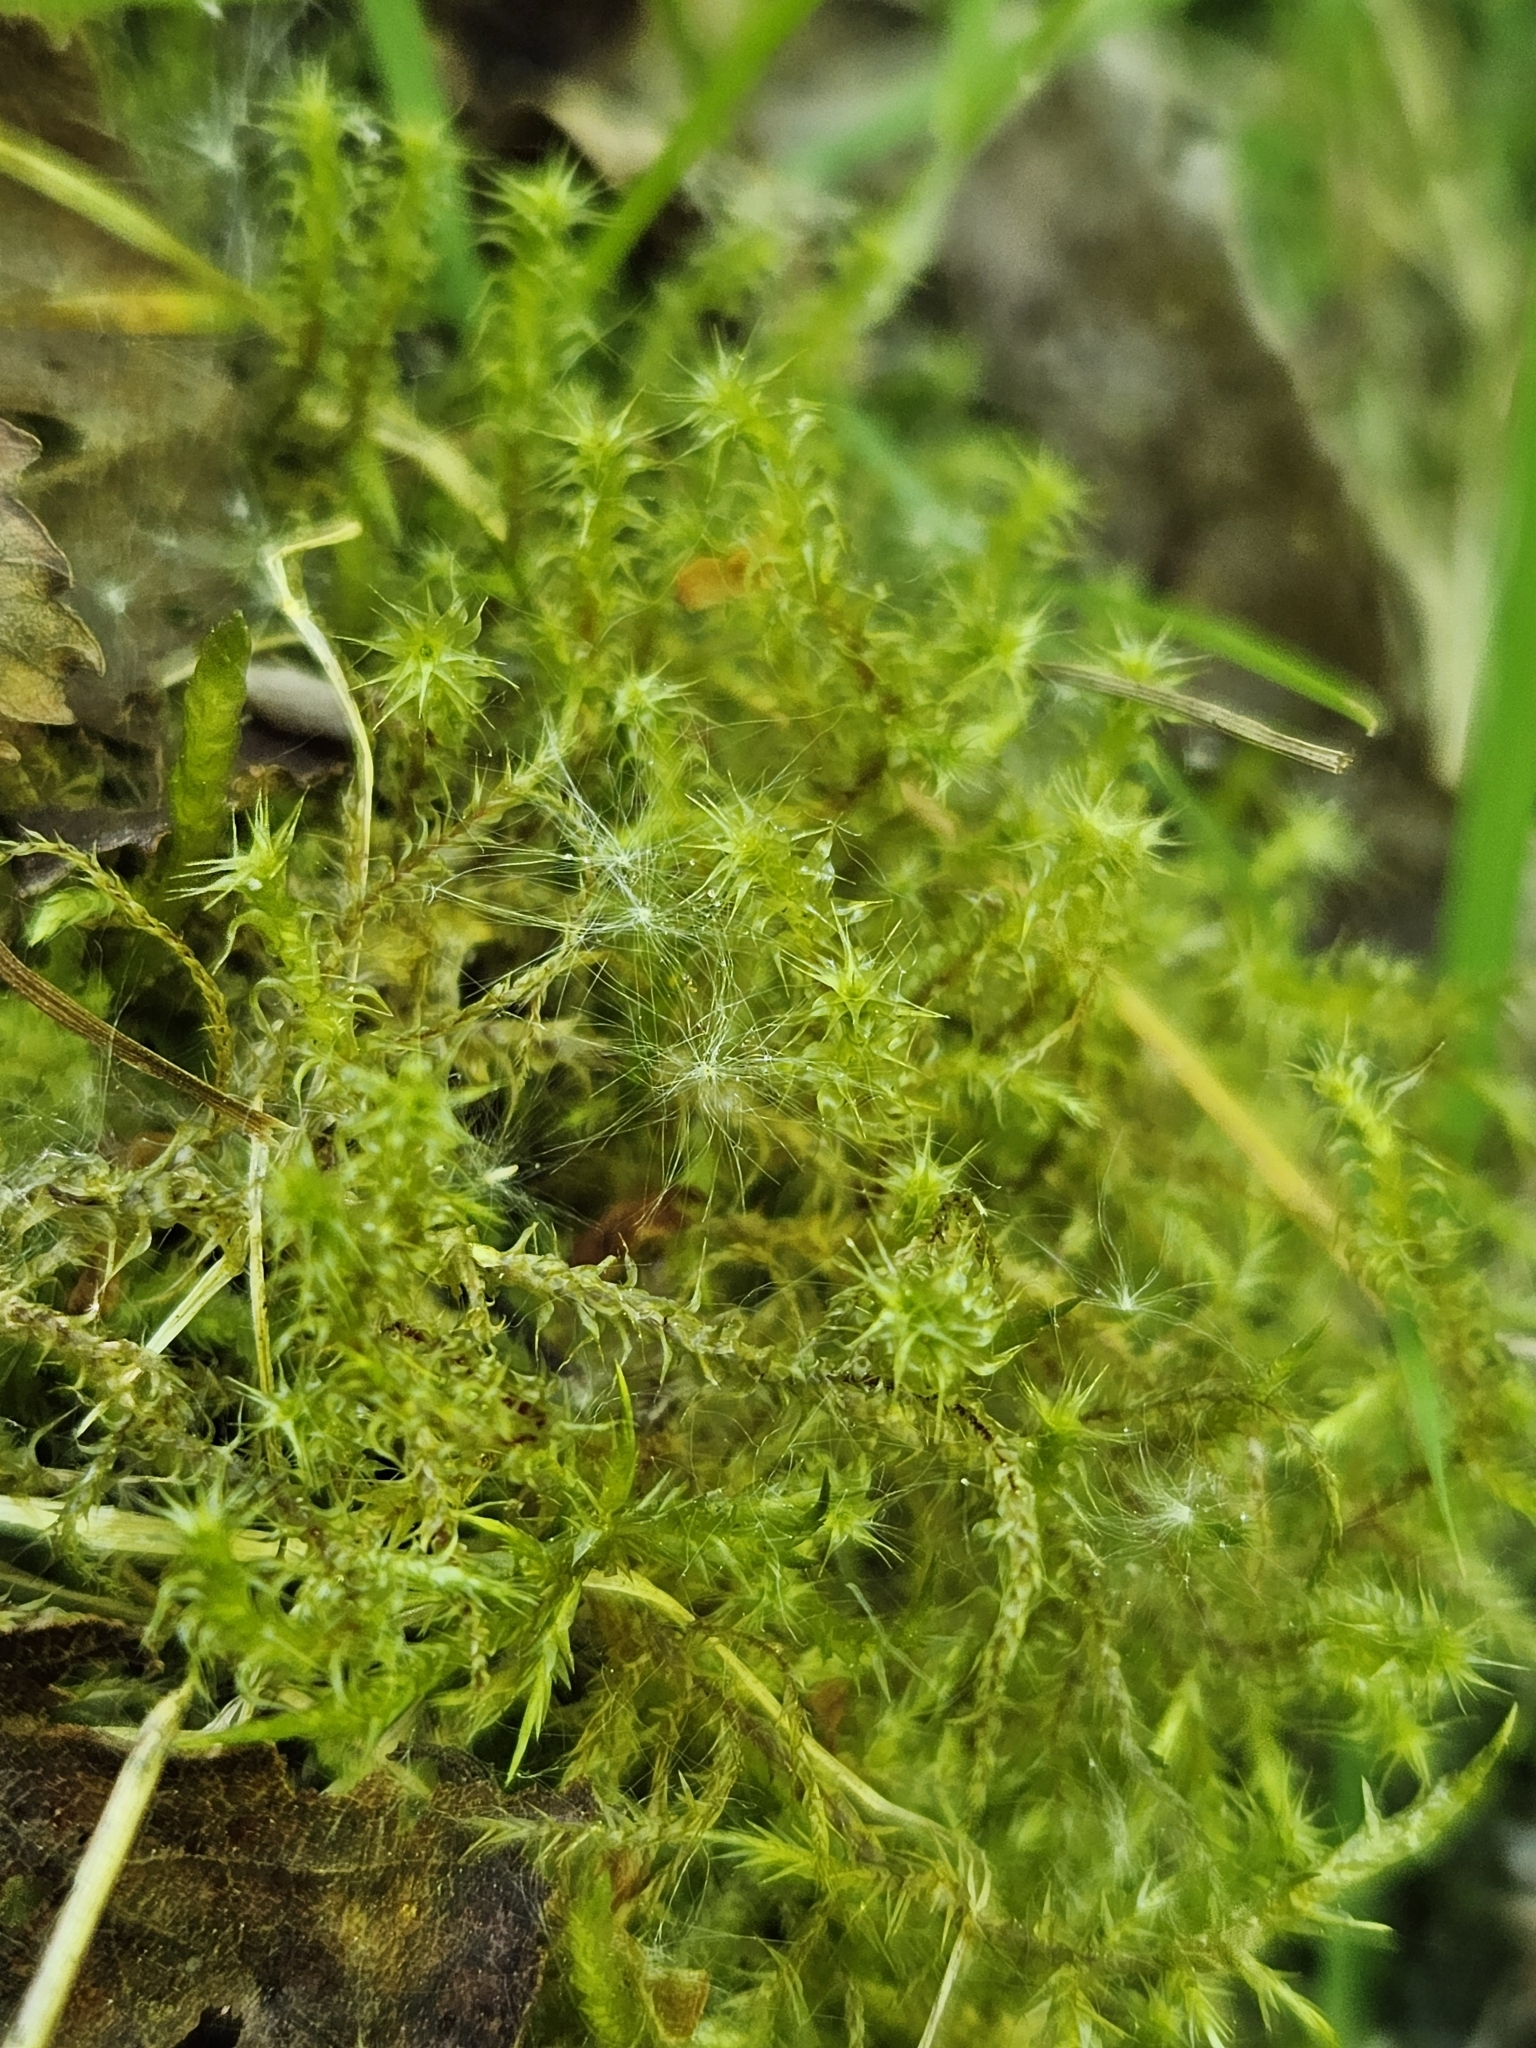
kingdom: Plantae
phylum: Bryophyta
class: Bryopsida
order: Hypnales
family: Hylocomiaceae
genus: Rhytidiadelphus
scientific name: Rhytidiadelphus squarrosus
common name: Springy turf-moss
